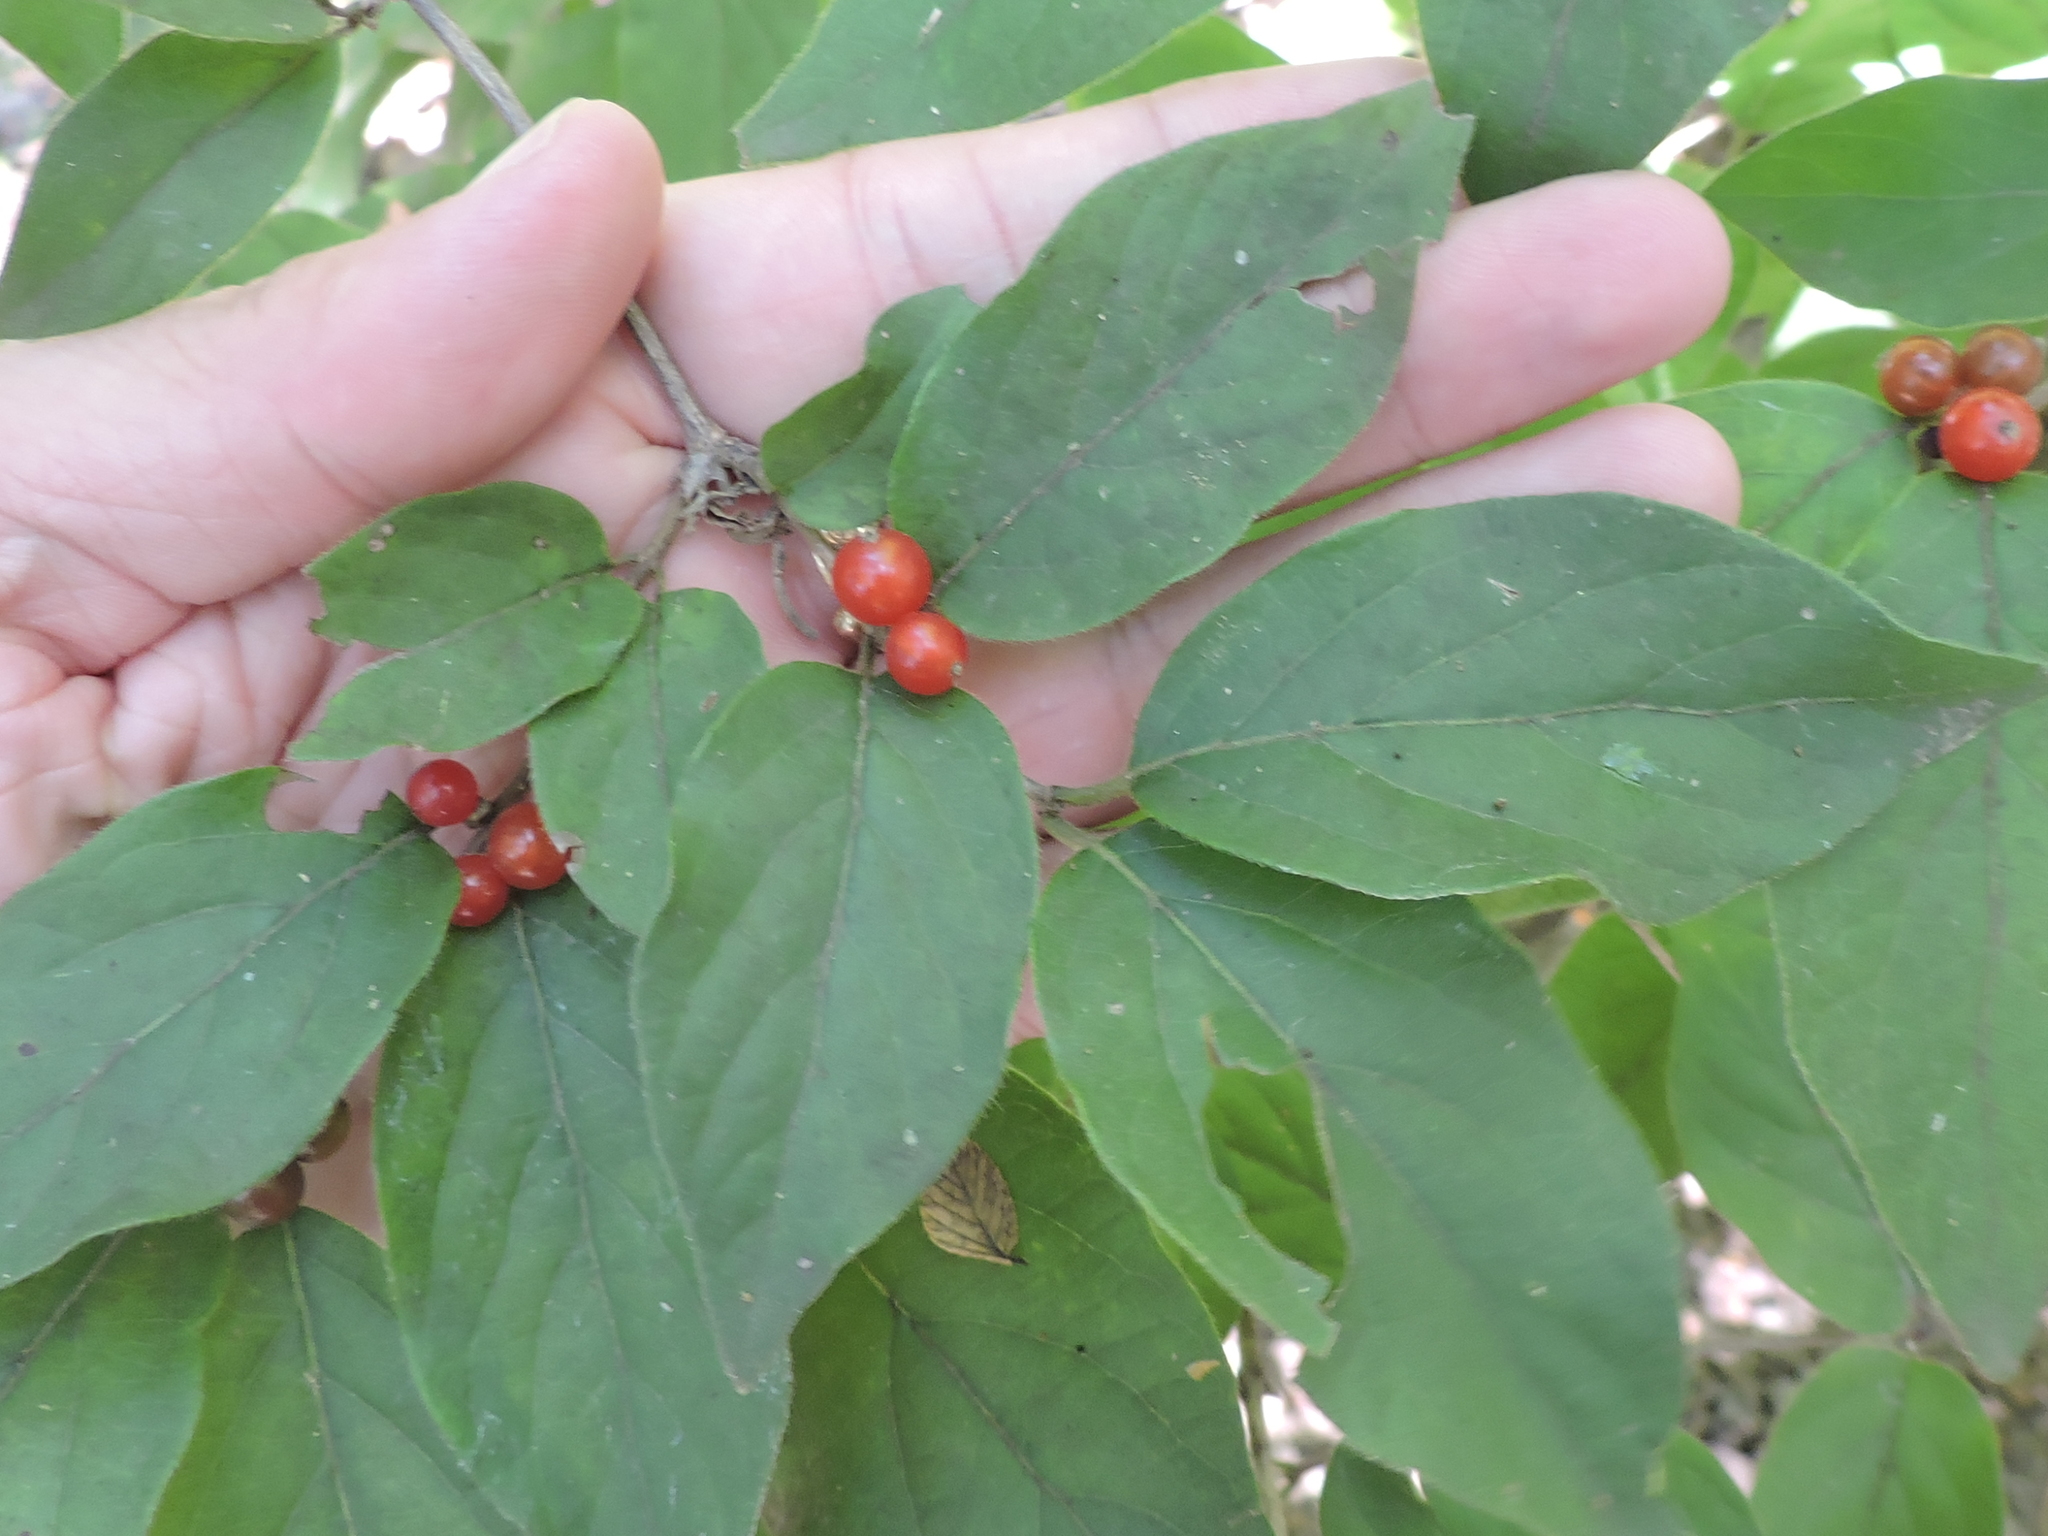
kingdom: Plantae
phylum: Tracheophyta
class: Magnoliopsida
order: Dipsacales
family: Caprifoliaceae
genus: Lonicera
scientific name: Lonicera maackii
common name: Amur honeysuckle
